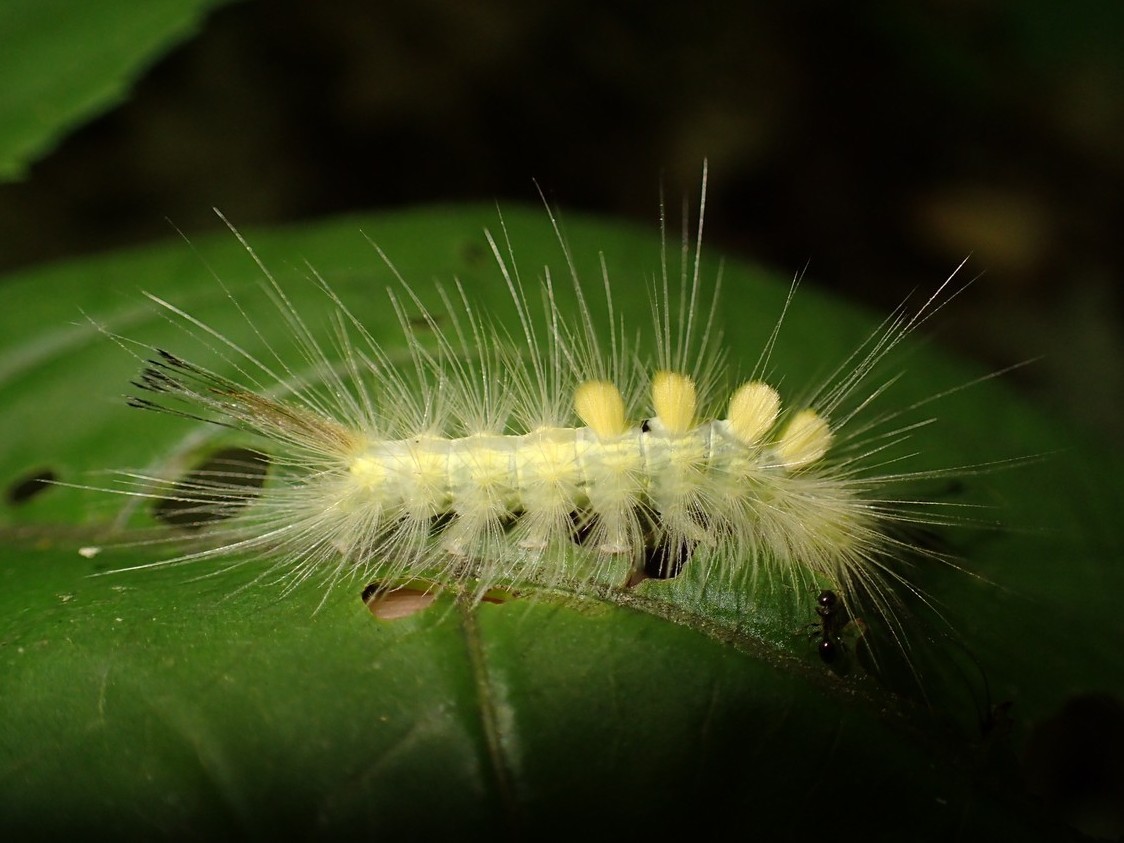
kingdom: Animalia
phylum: Arthropoda
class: Insecta
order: Lepidoptera
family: Erebidae
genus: Orgyia
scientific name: Orgyia definita
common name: Definite tussock moth
